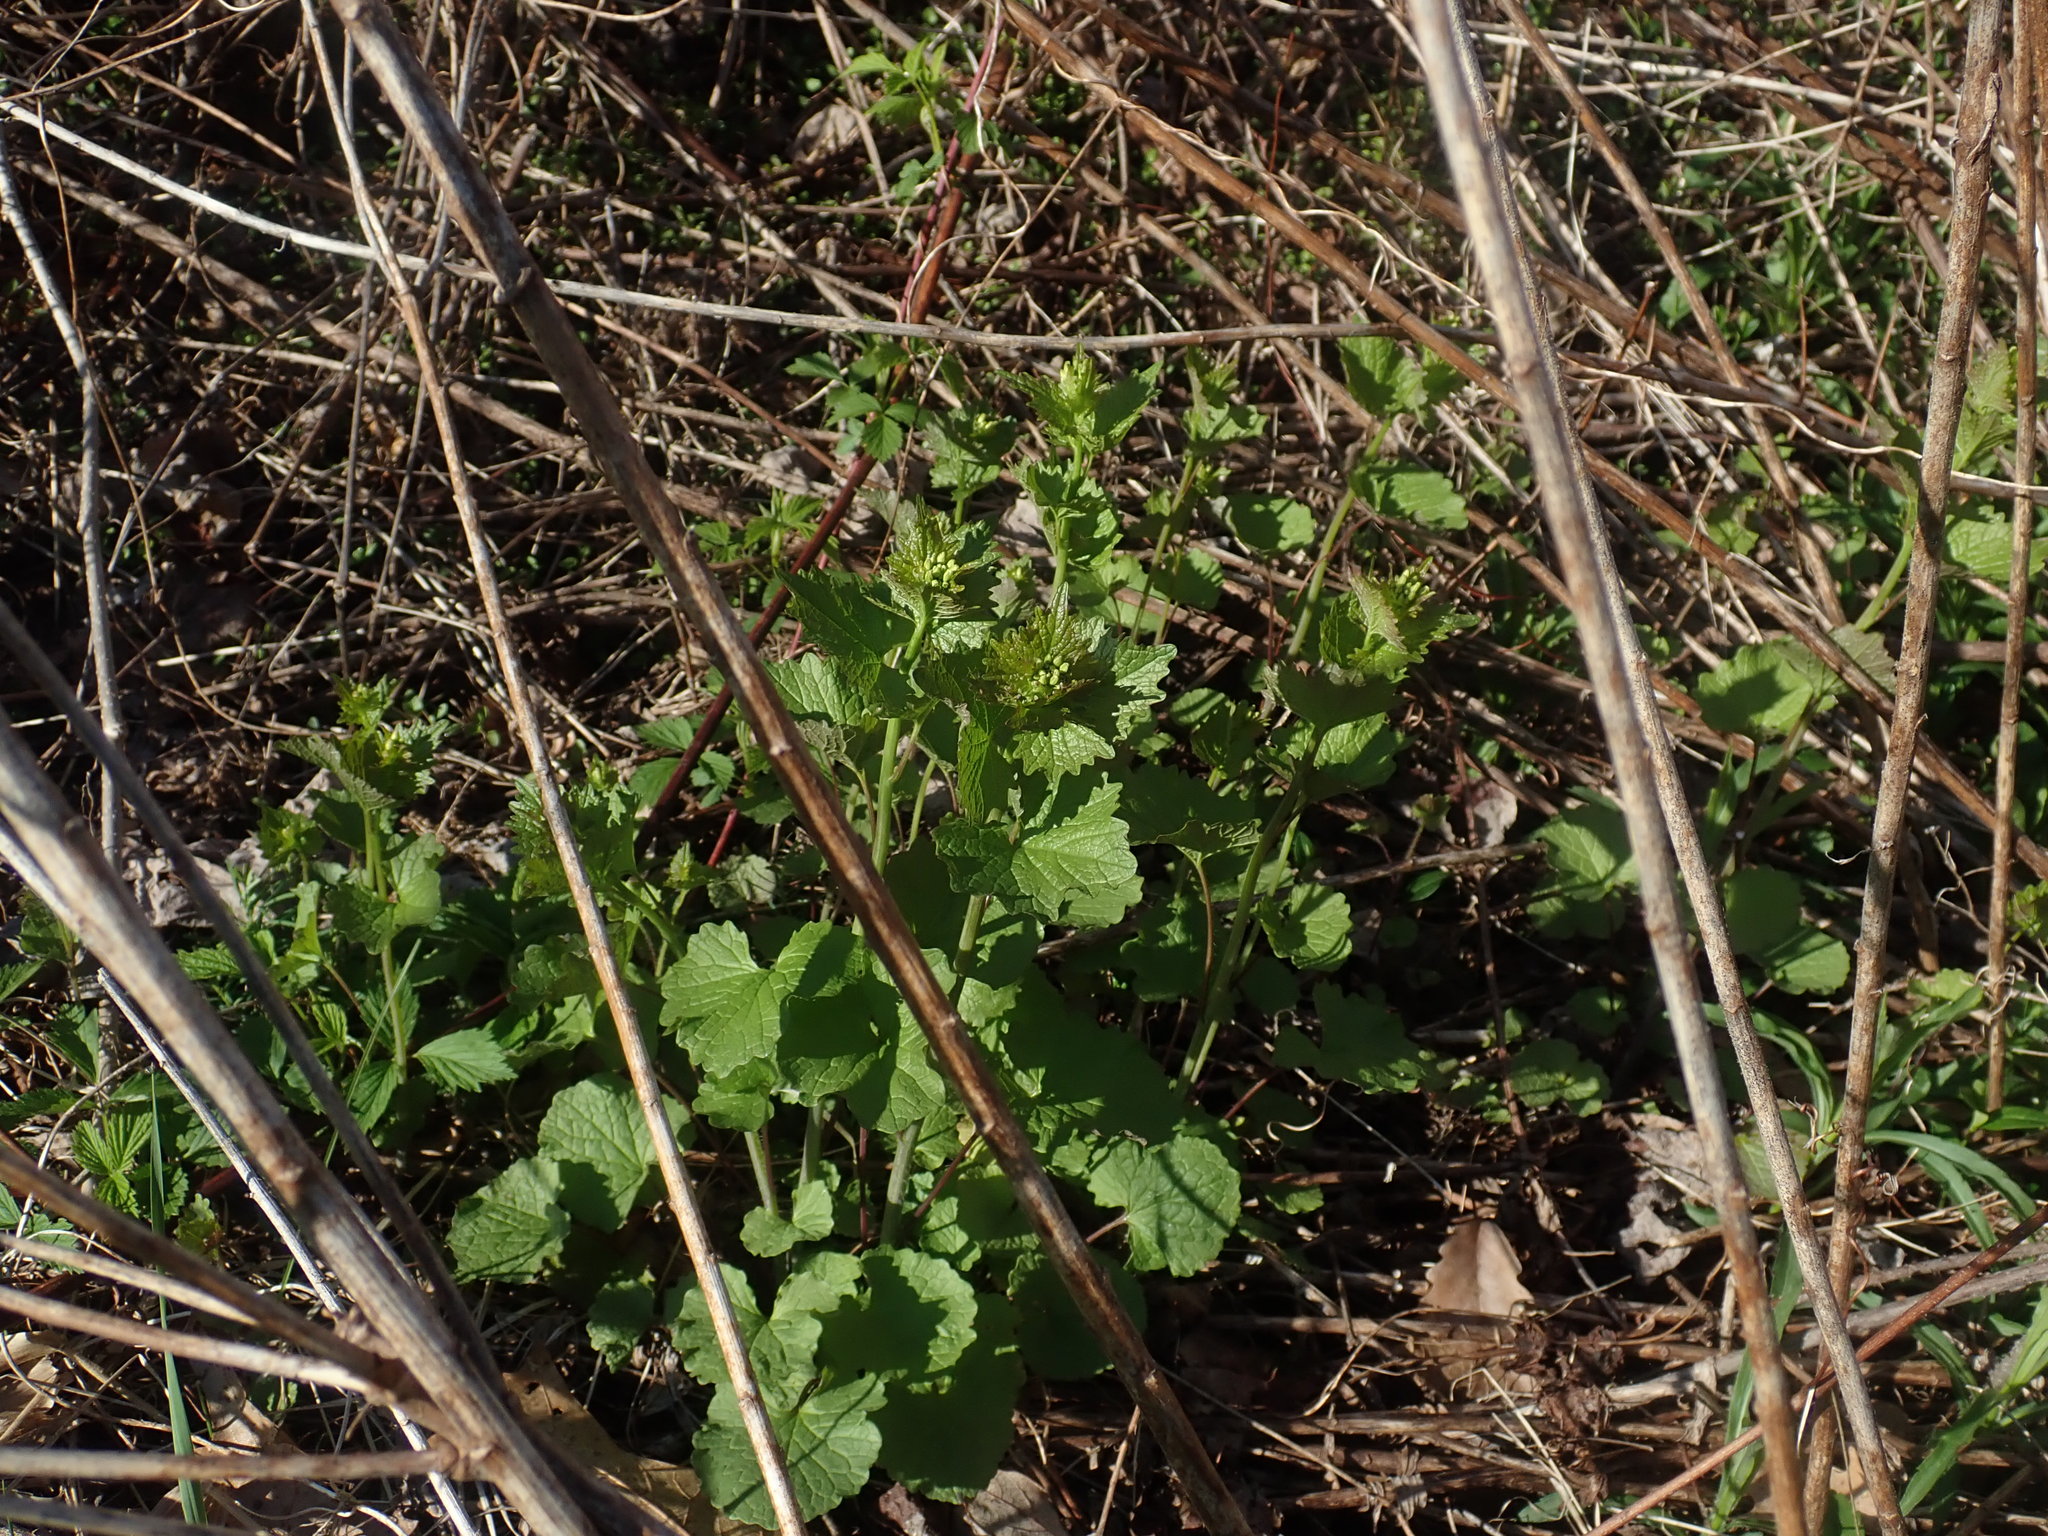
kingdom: Plantae
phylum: Tracheophyta
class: Magnoliopsida
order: Brassicales
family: Brassicaceae
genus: Alliaria
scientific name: Alliaria petiolata
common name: Garlic mustard
